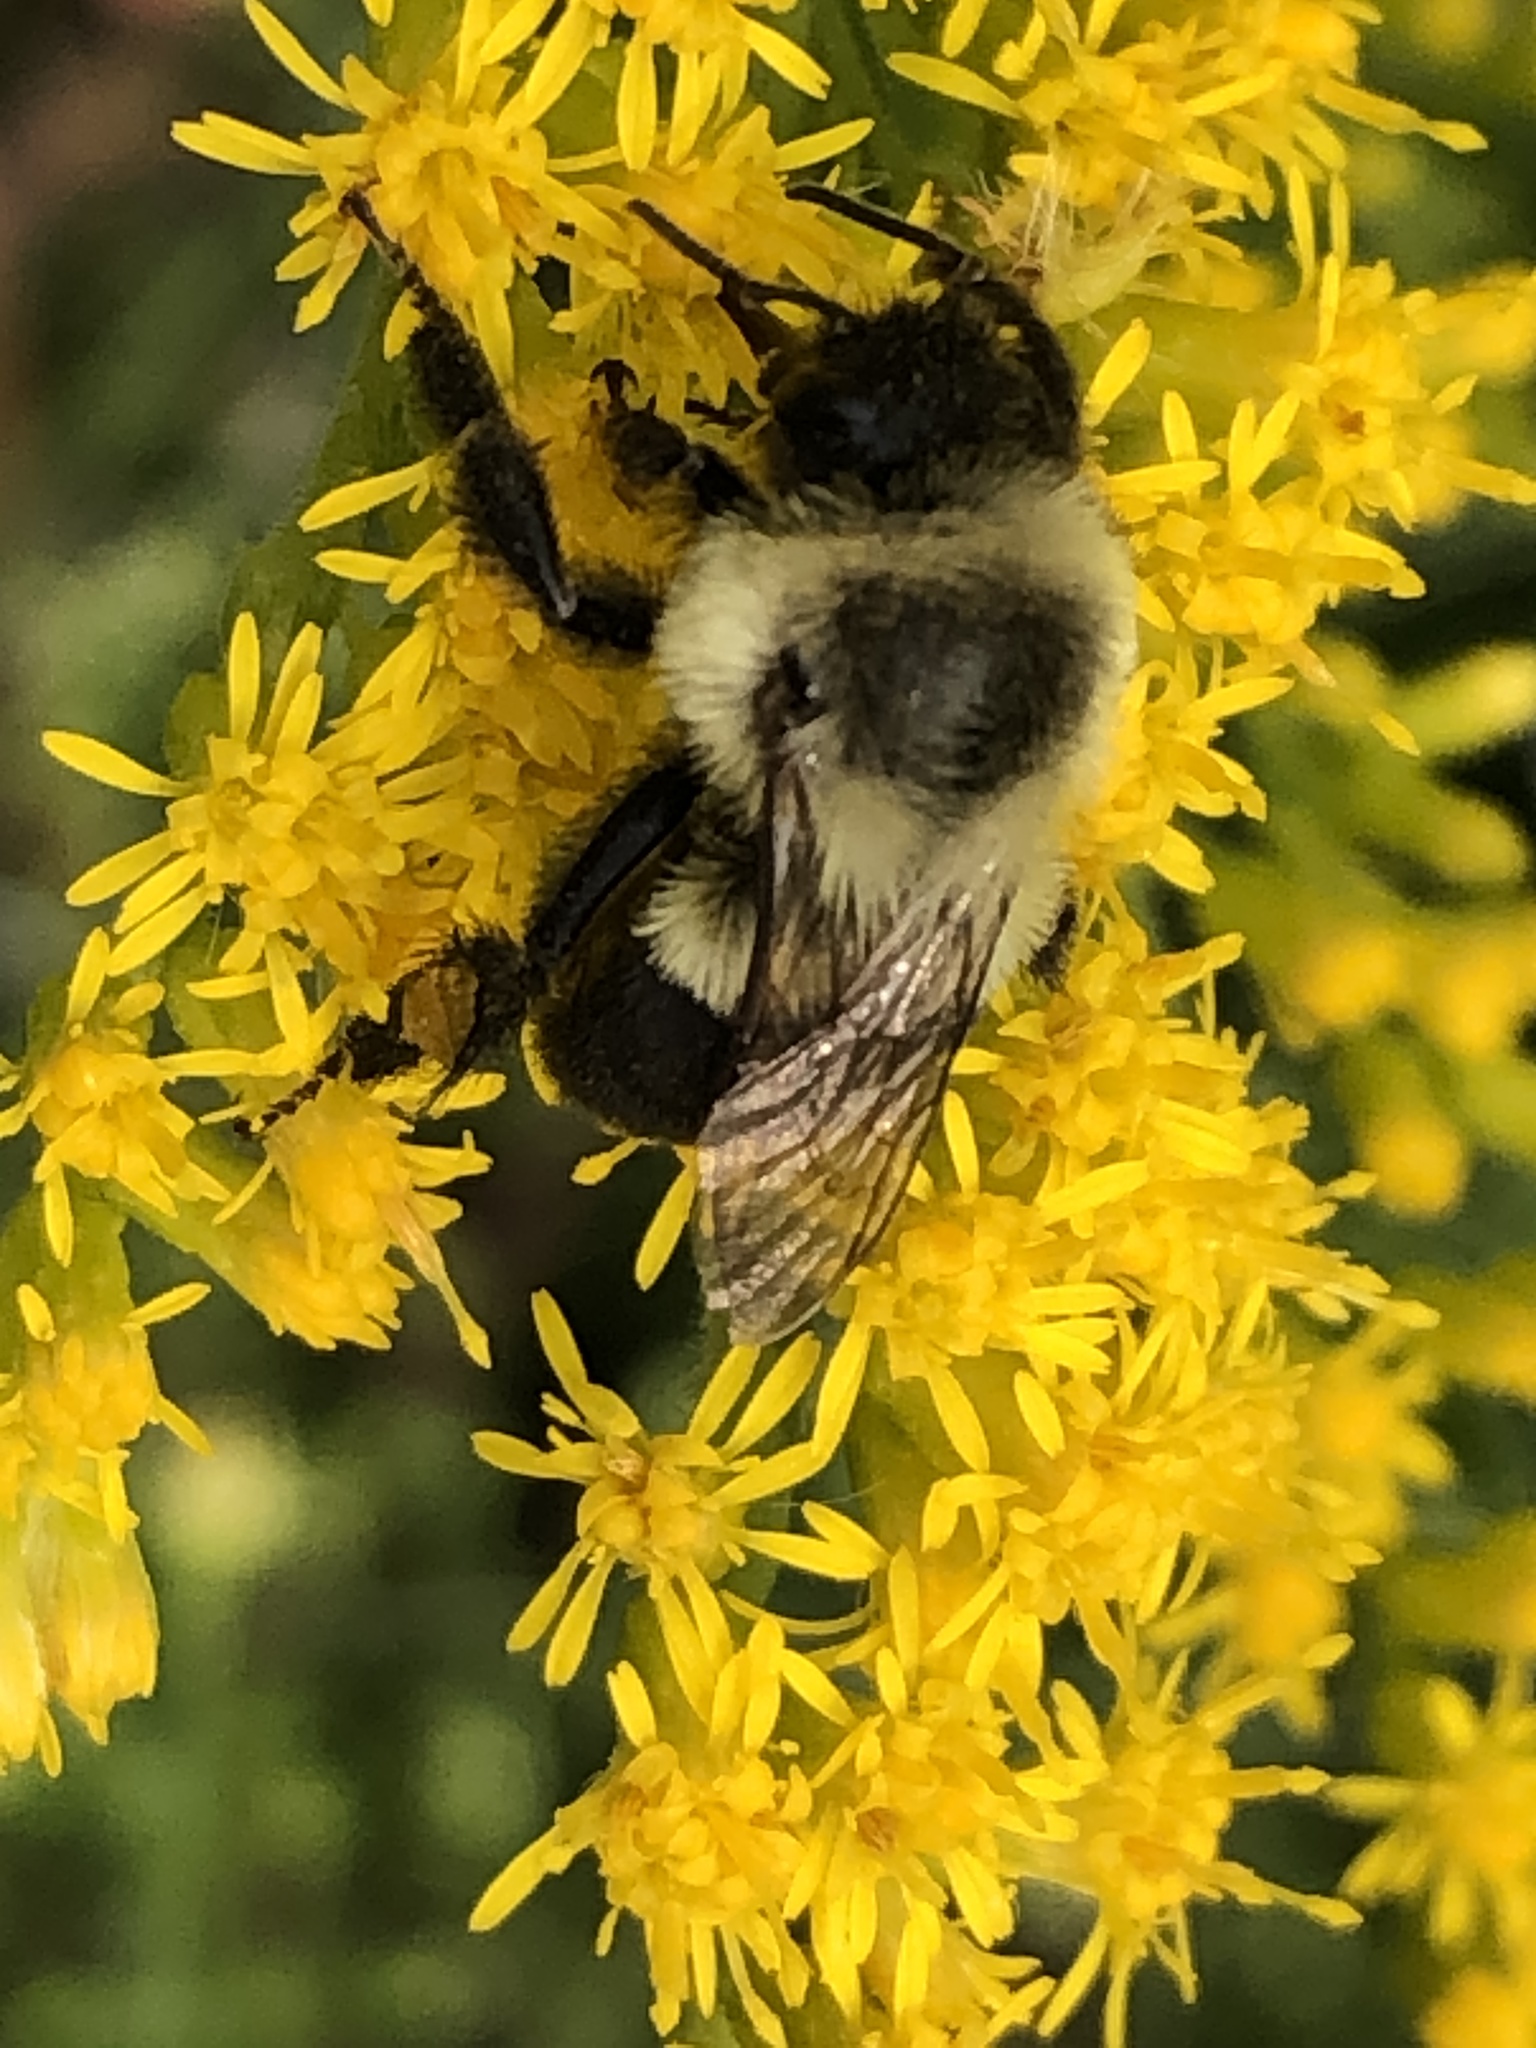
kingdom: Animalia
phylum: Arthropoda
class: Insecta
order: Hymenoptera
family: Apidae
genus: Bombus
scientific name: Bombus impatiens
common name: Common eastern bumble bee
